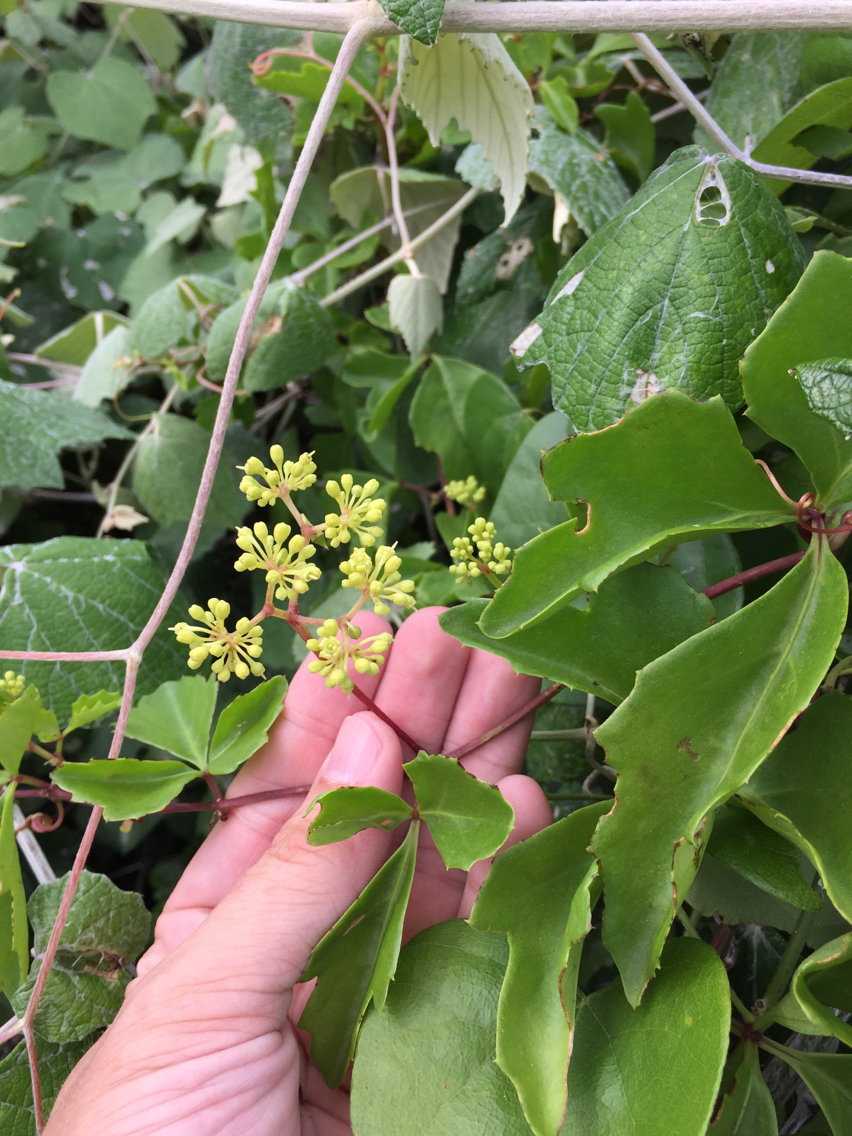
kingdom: Plantae
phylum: Tracheophyta
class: Magnoliopsida
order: Vitales
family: Vitaceae
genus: Cissus
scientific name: Cissus trifoliata
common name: Vine-sorrel
